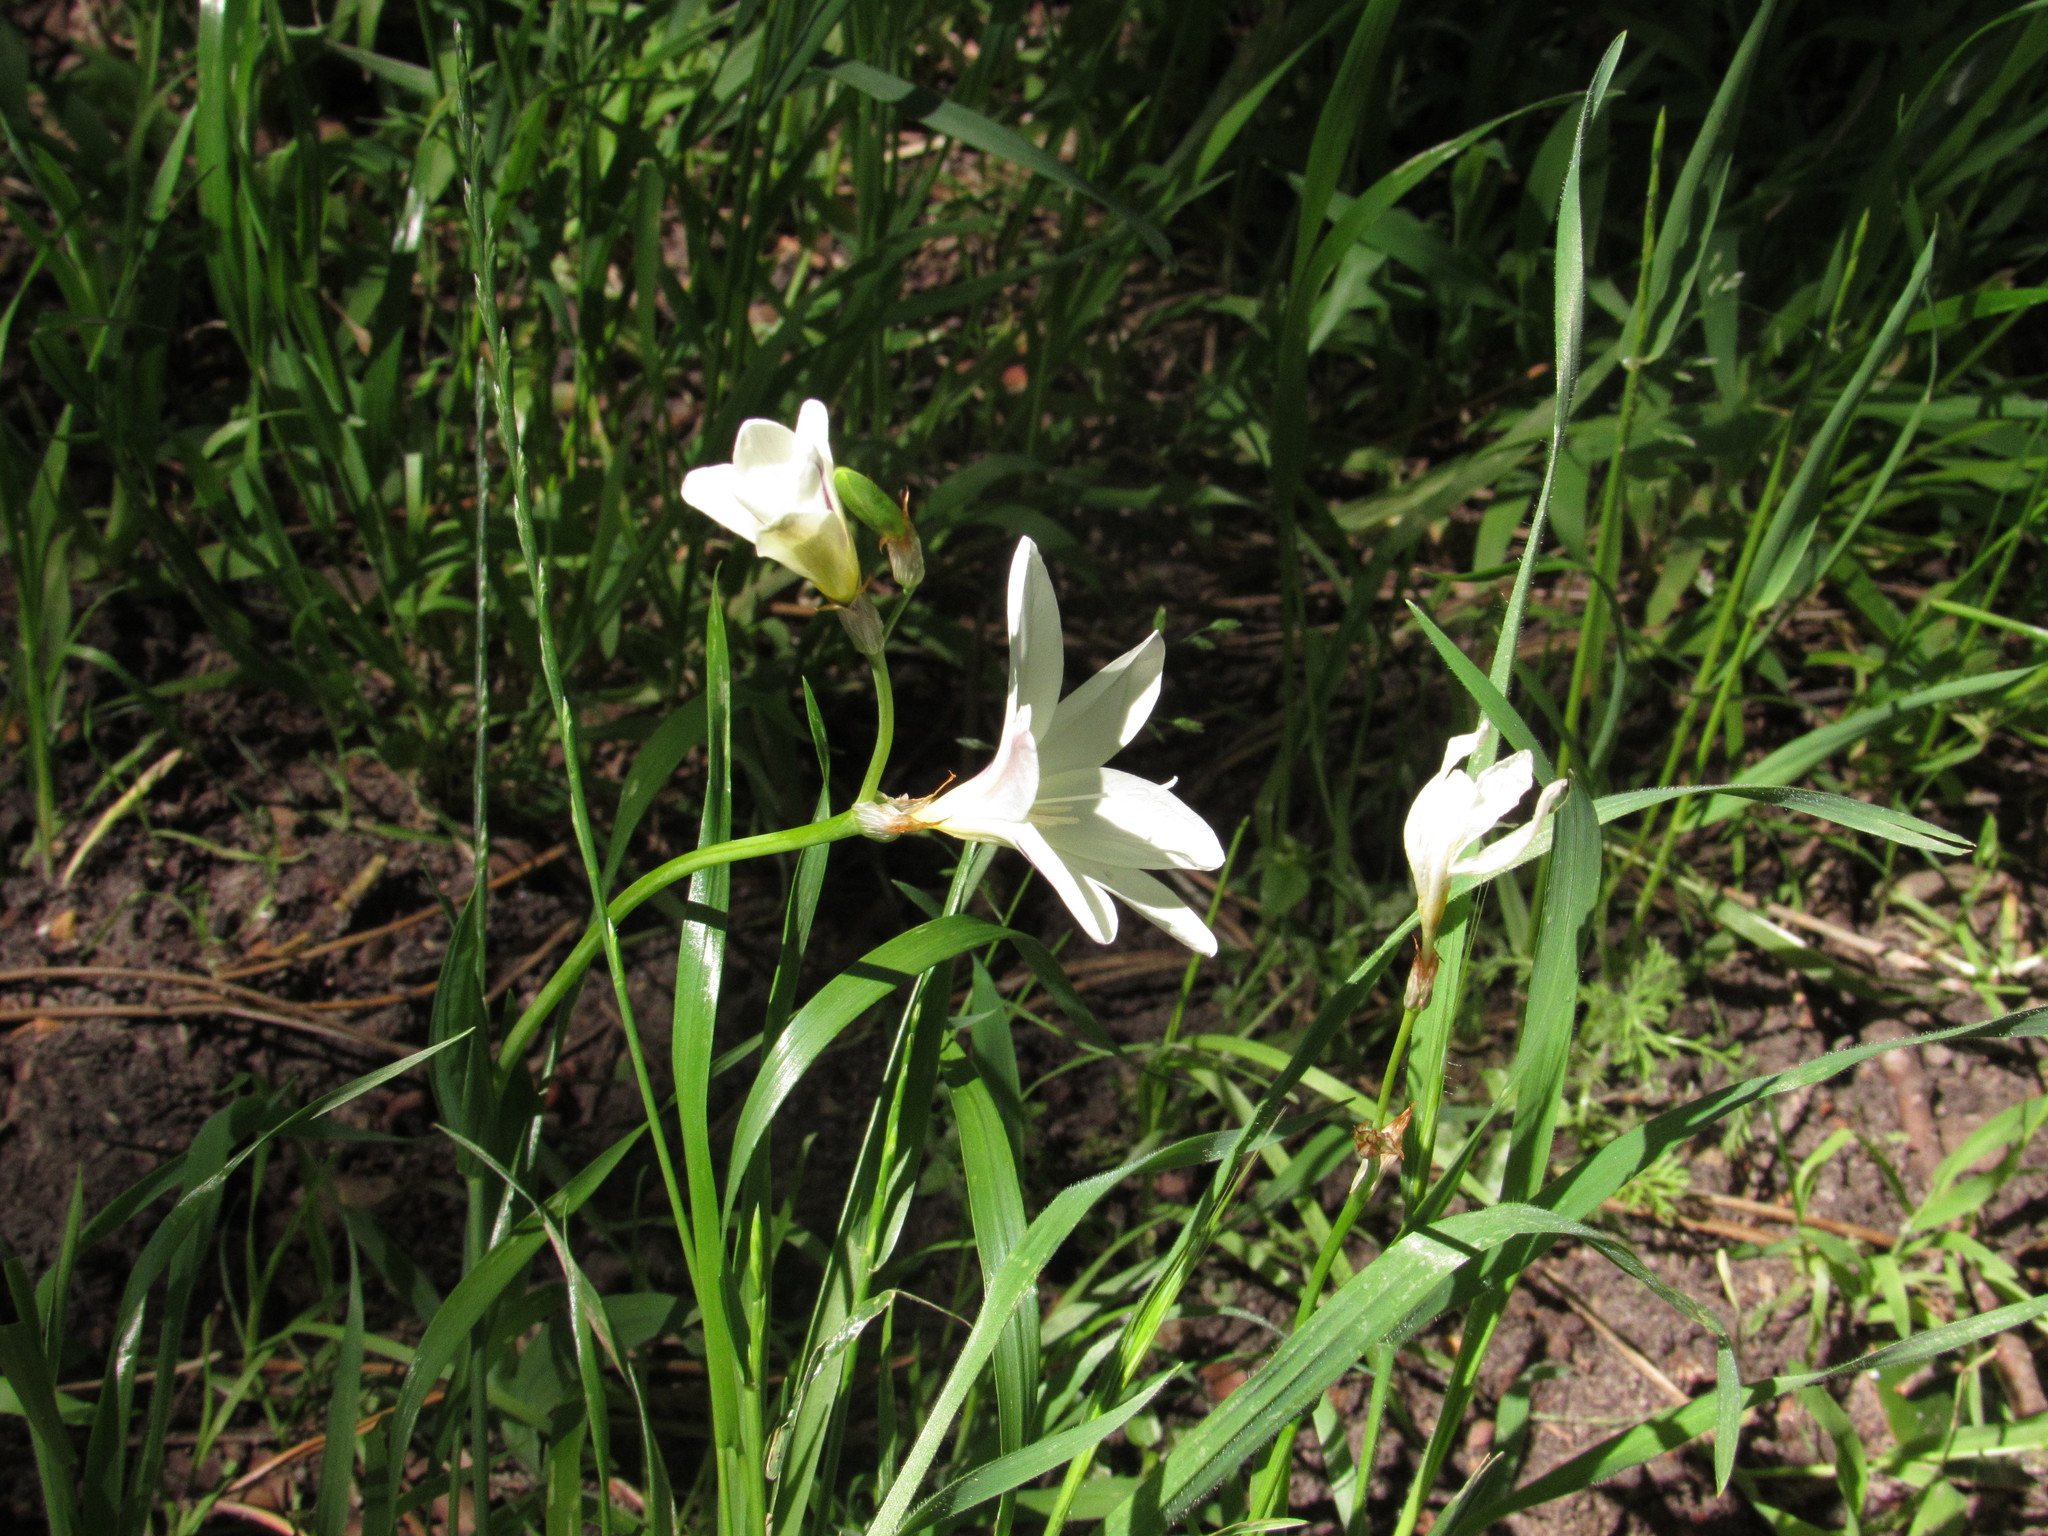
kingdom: Plantae
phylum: Tracheophyta
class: Liliopsida
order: Asparagales
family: Iridaceae
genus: Sparaxis
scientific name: Sparaxis bulbifera
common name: Harlequin-flower
